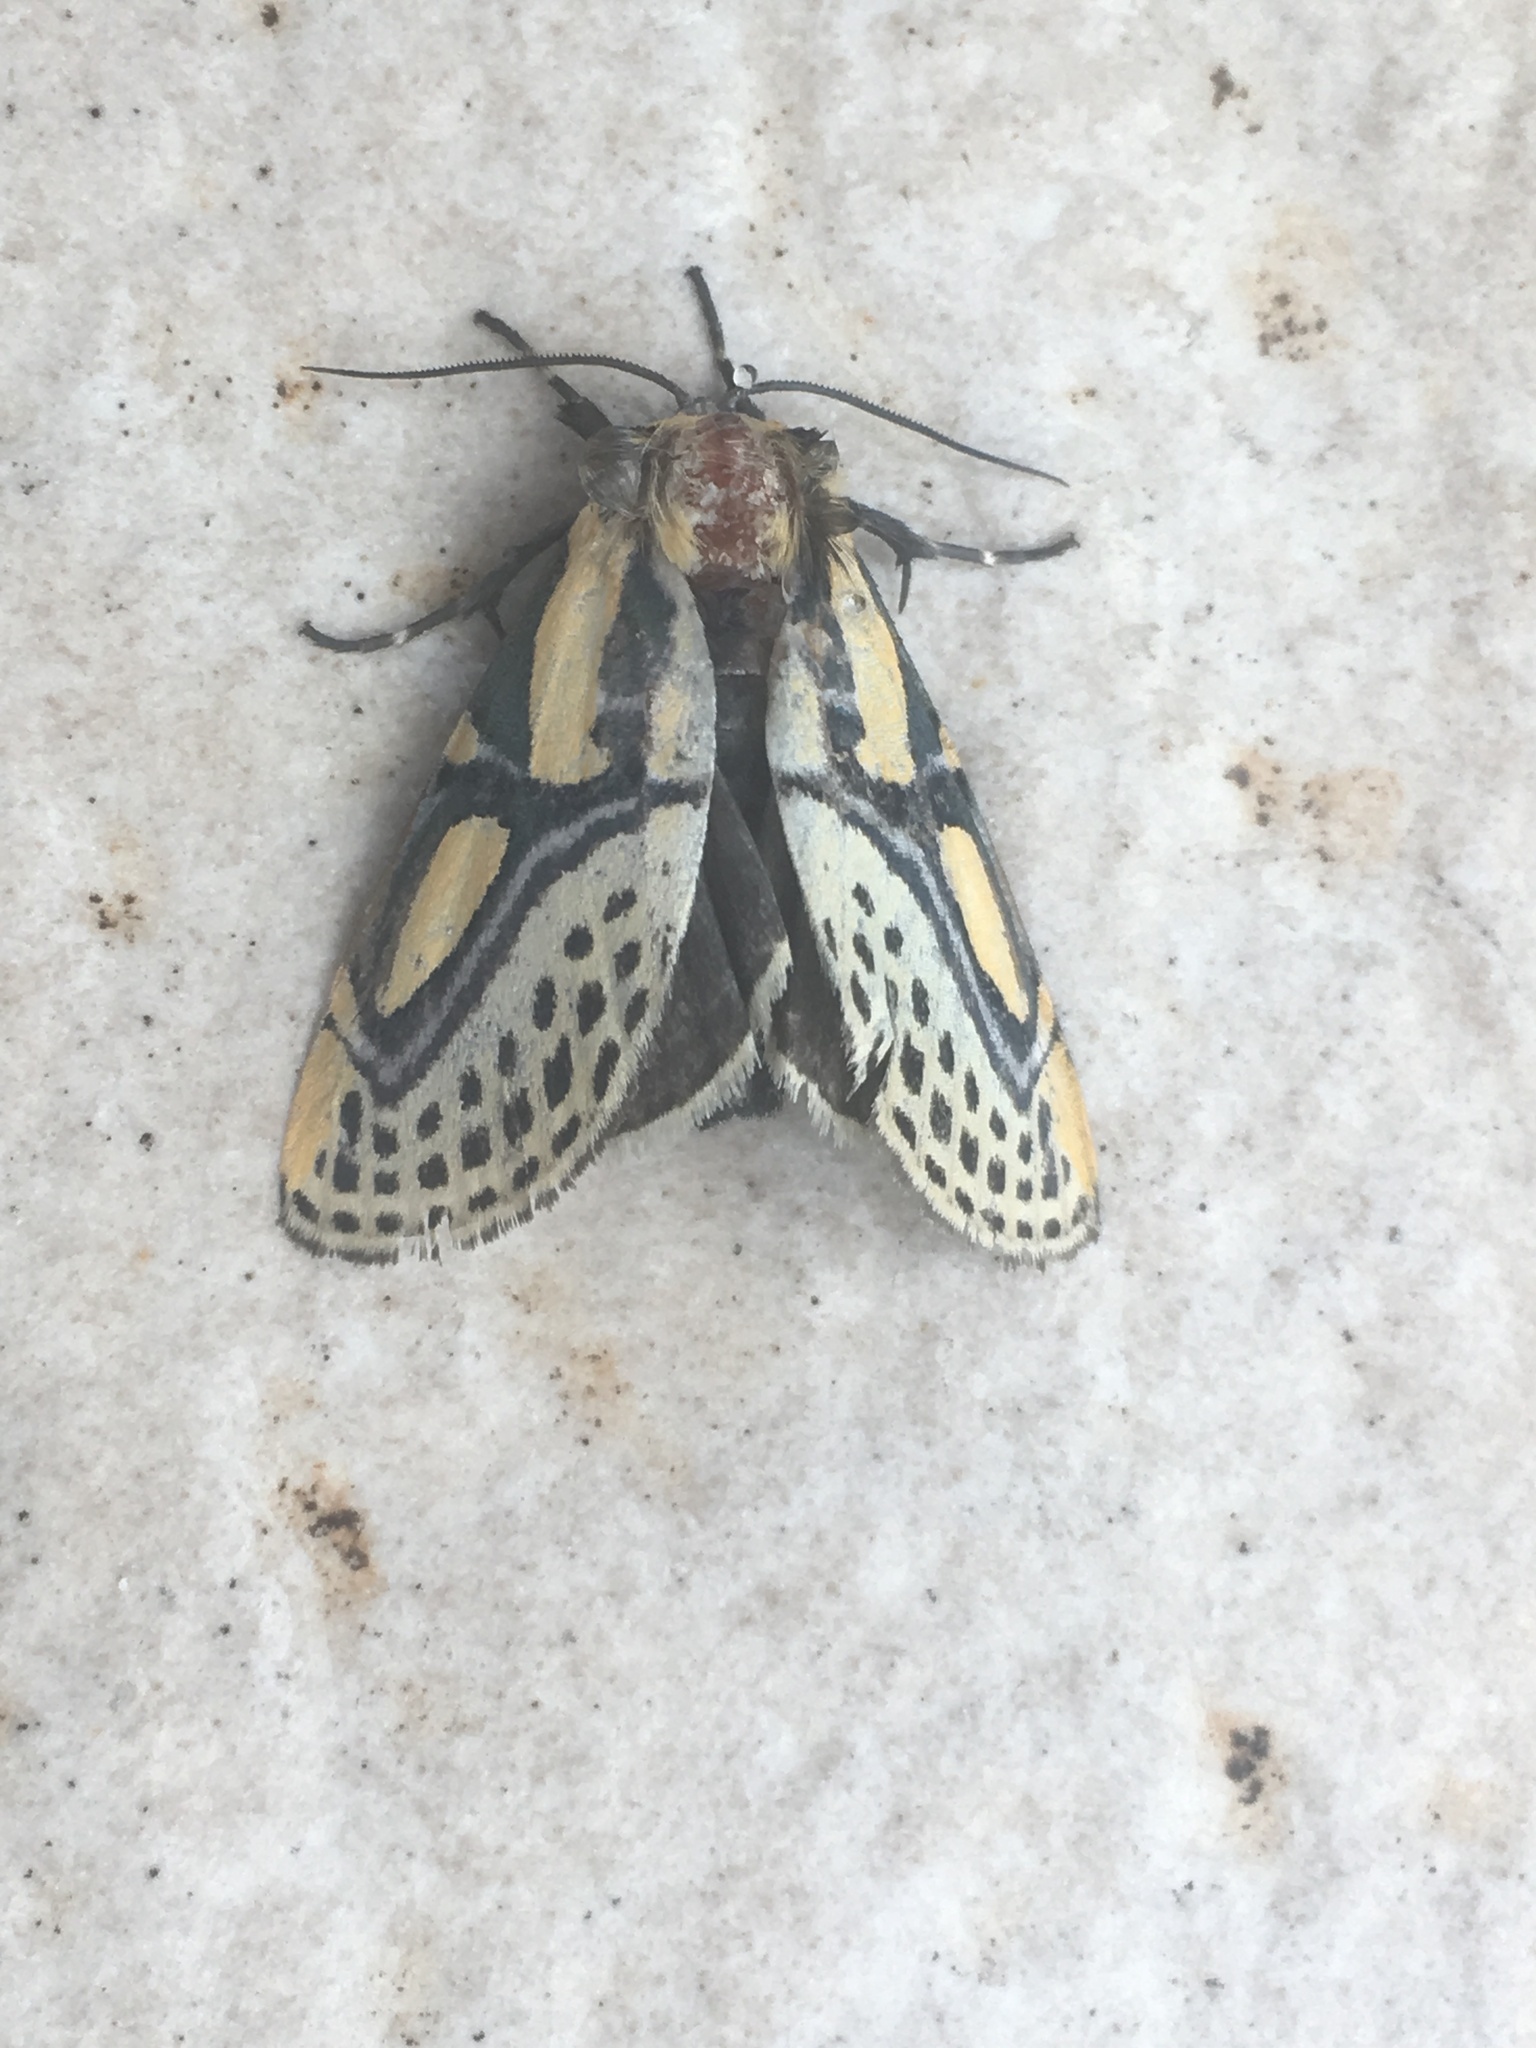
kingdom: Animalia
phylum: Arthropoda
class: Insecta
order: Lepidoptera
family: Erebidae
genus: Diphthera
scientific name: Diphthera festiva
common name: Hieroglyphic moth
